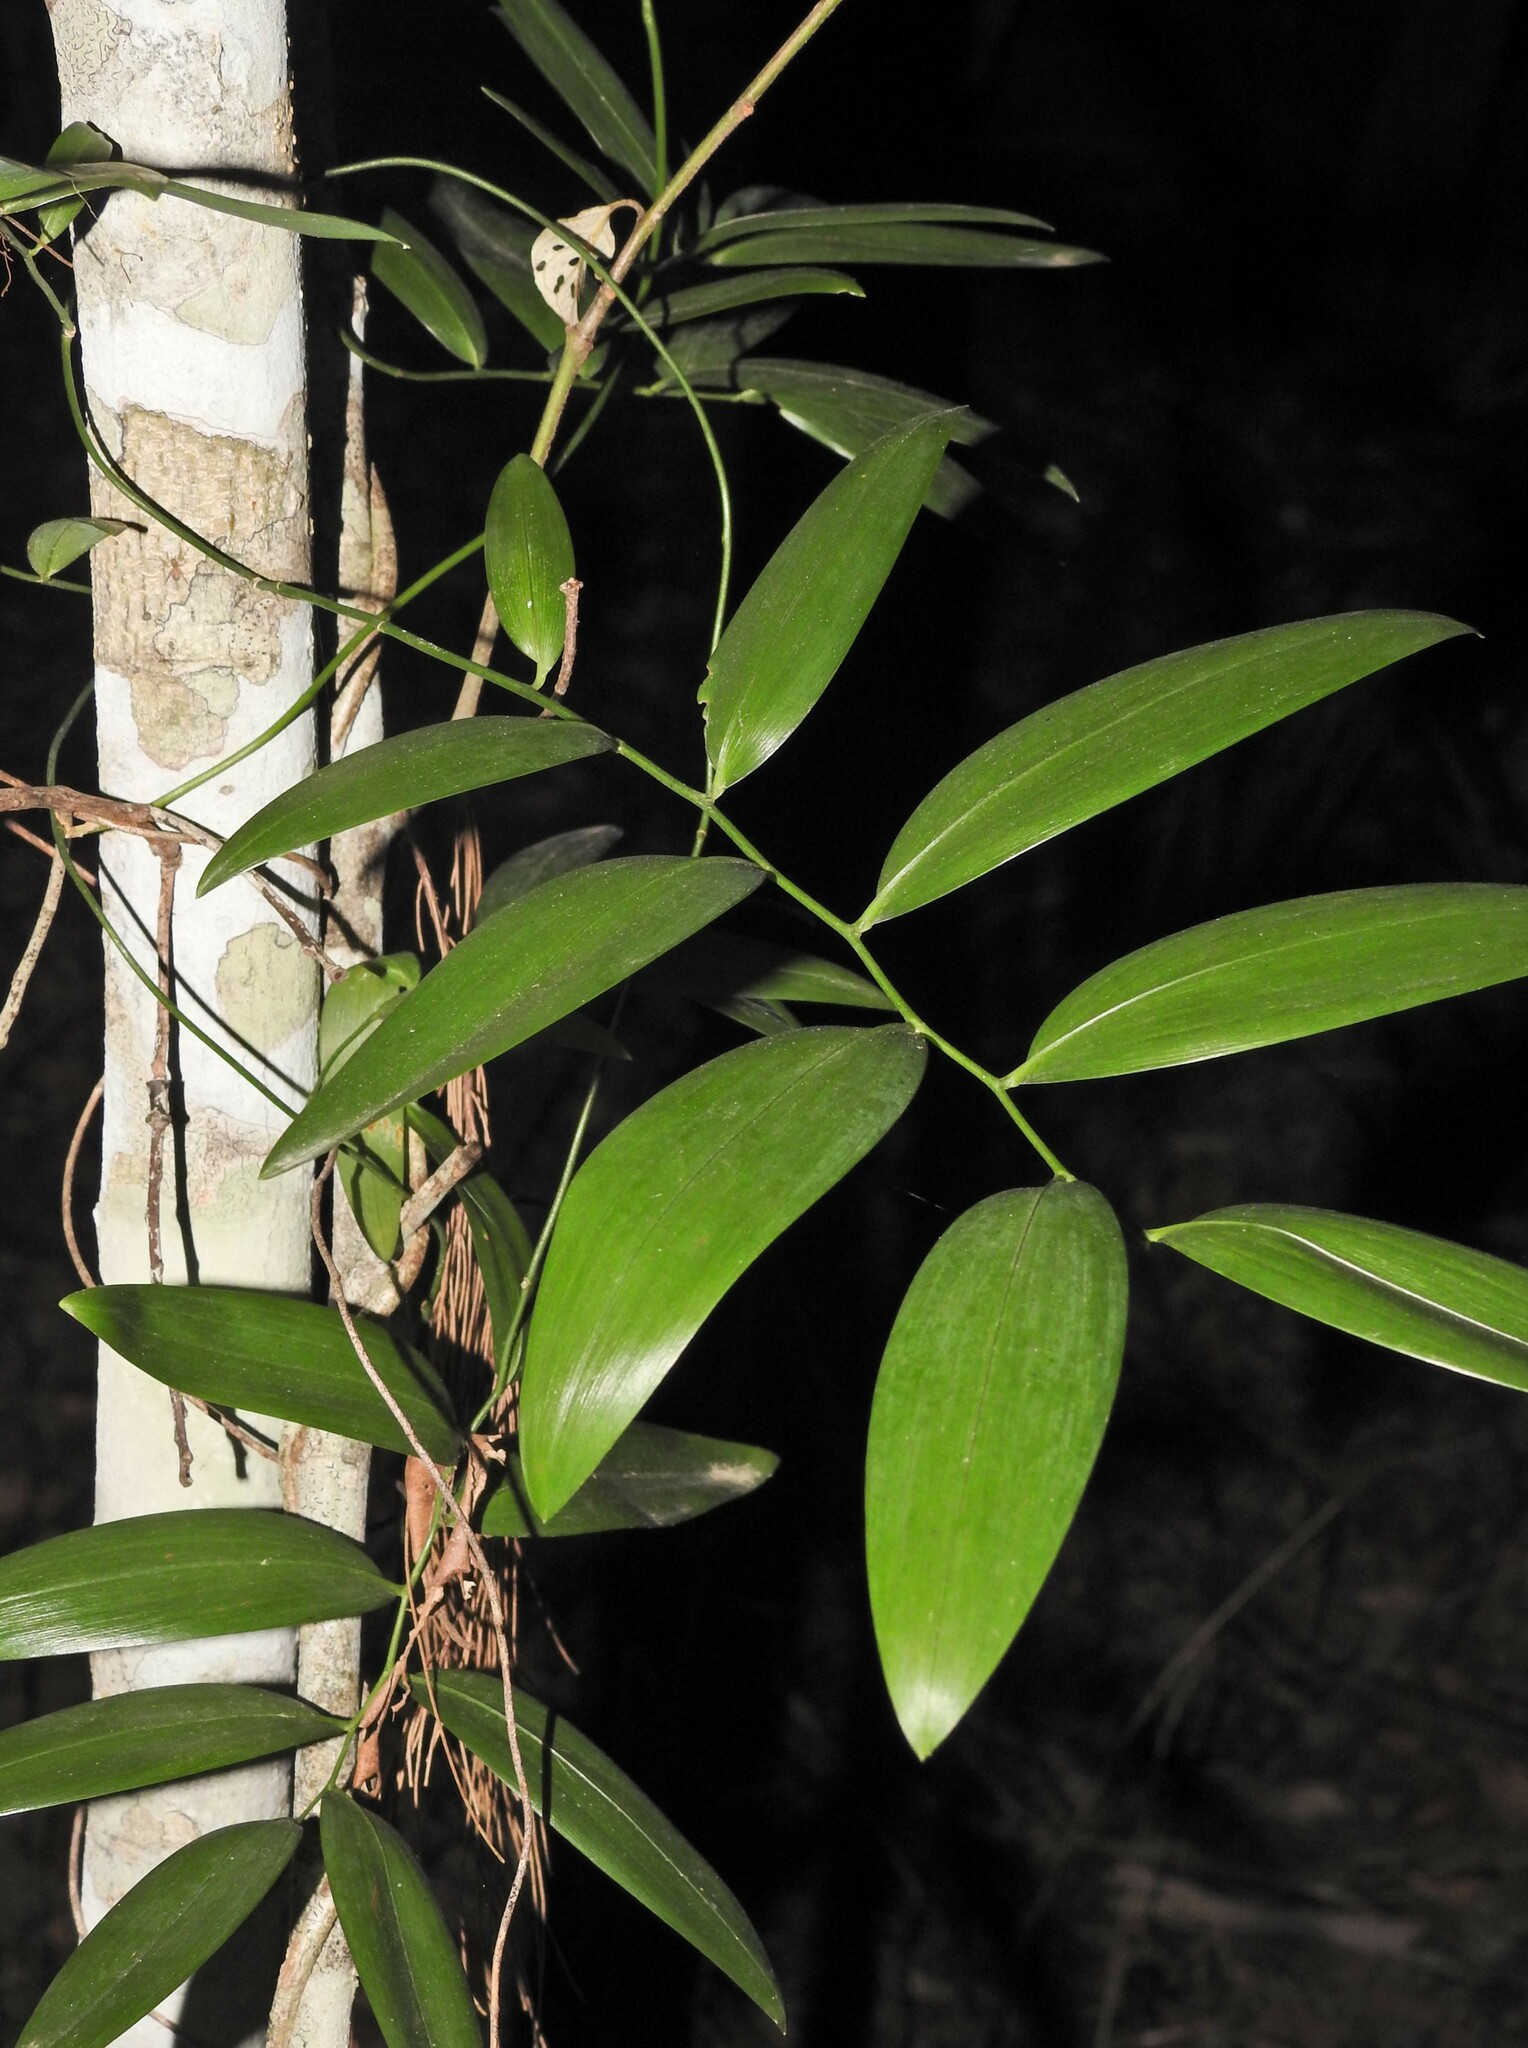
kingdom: Plantae
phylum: Tracheophyta
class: Liliopsida
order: Asparagales
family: Asphodelaceae
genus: Geitonoplesium
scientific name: Geitonoplesium cymosum
